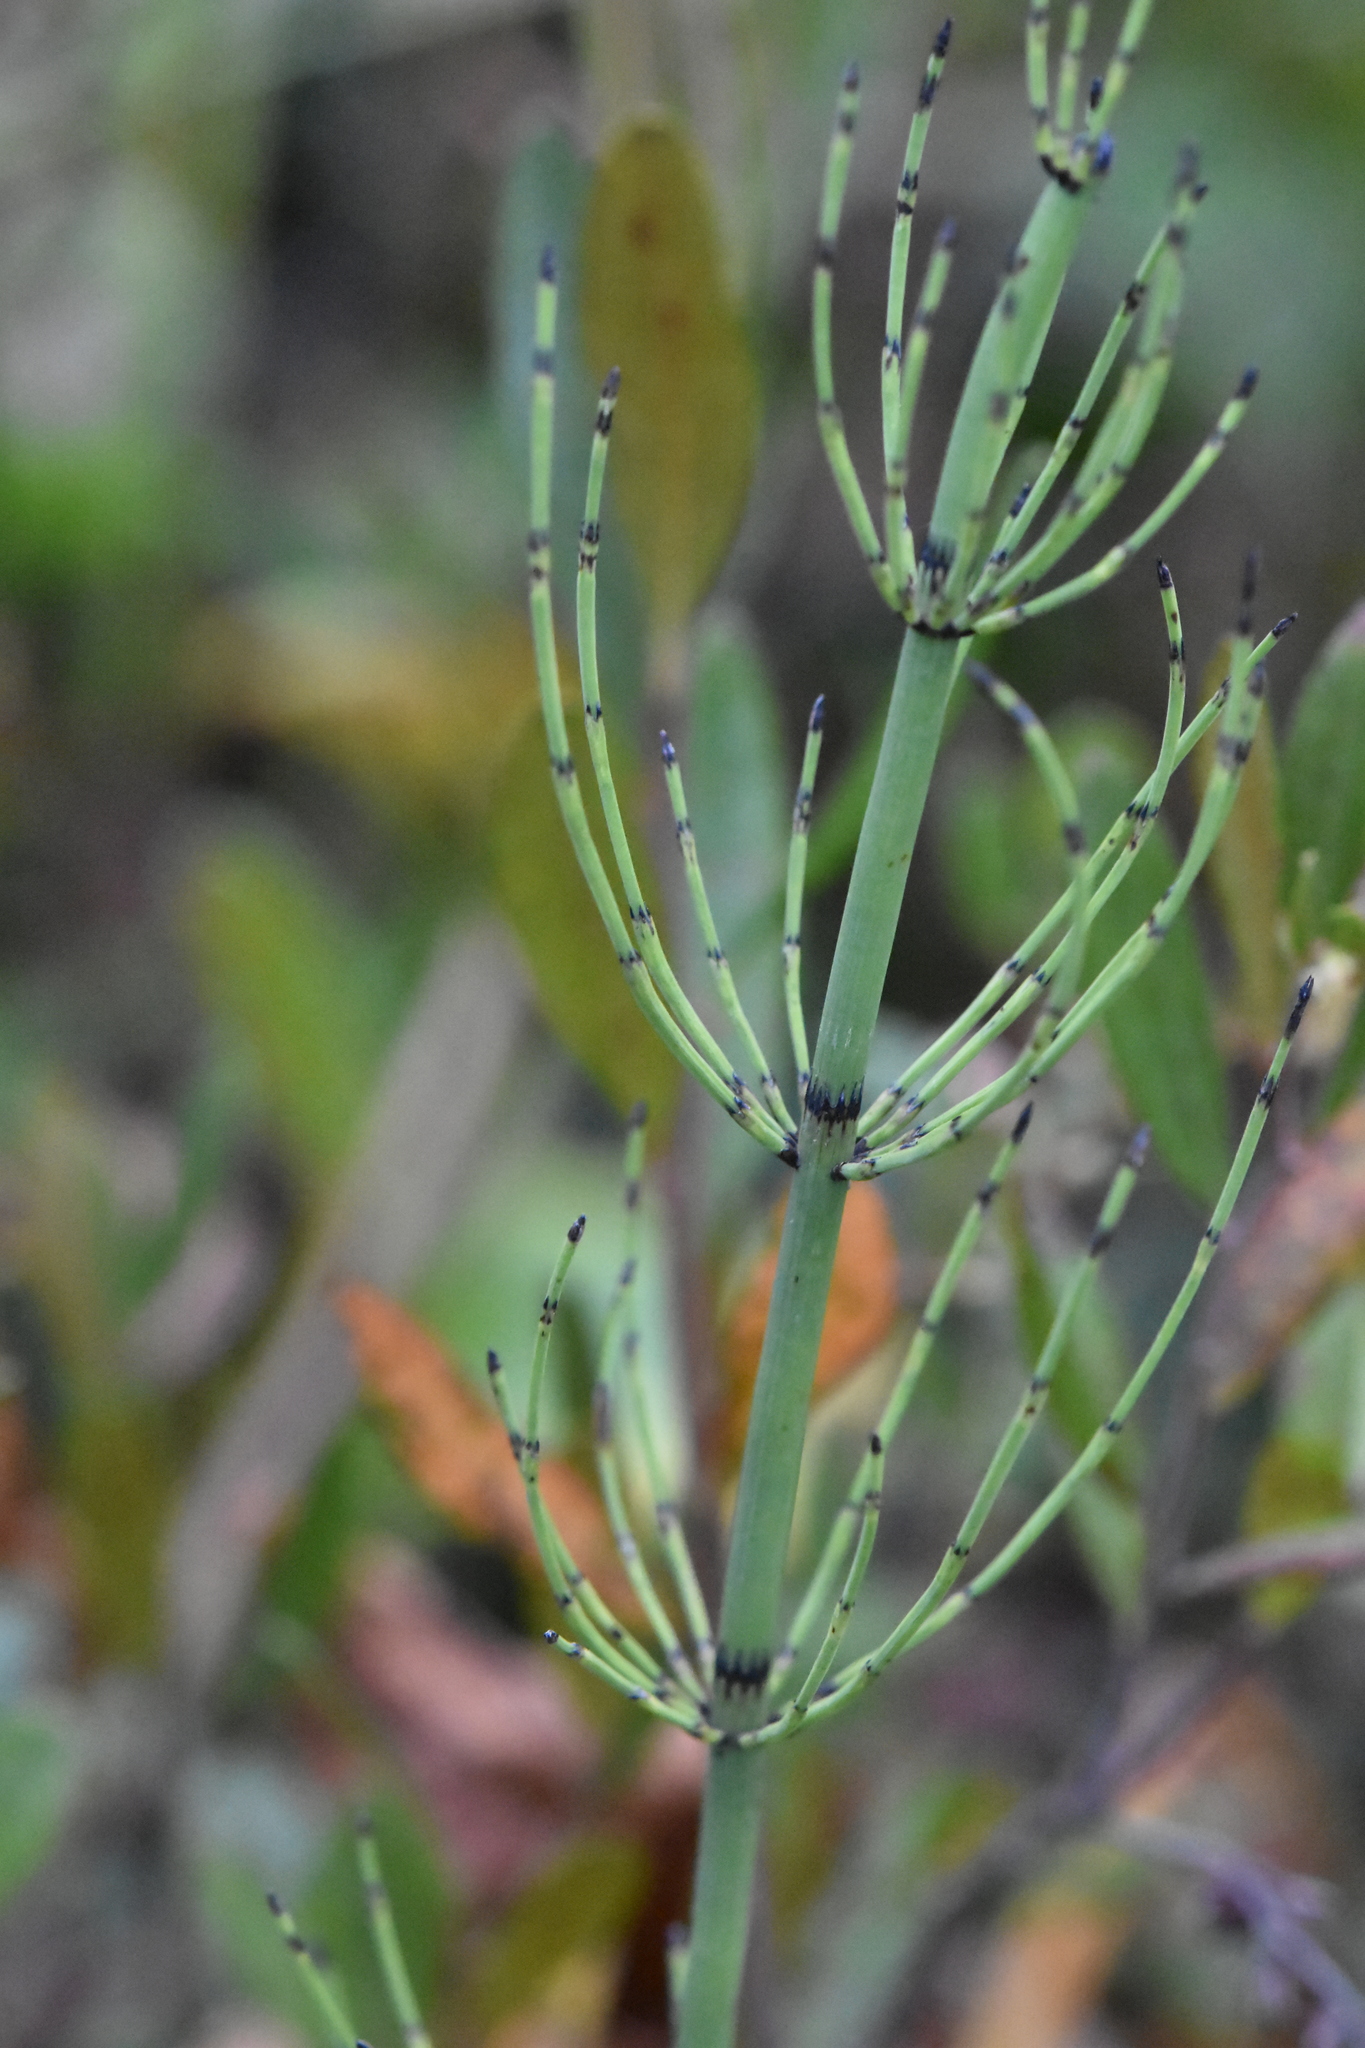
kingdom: Plantae
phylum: Tracheophyta
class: Polypodiopsida
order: Equisetales
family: Equisetaceae
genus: Equisetum
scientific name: Equisetum fluviatile
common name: Water horsetail
